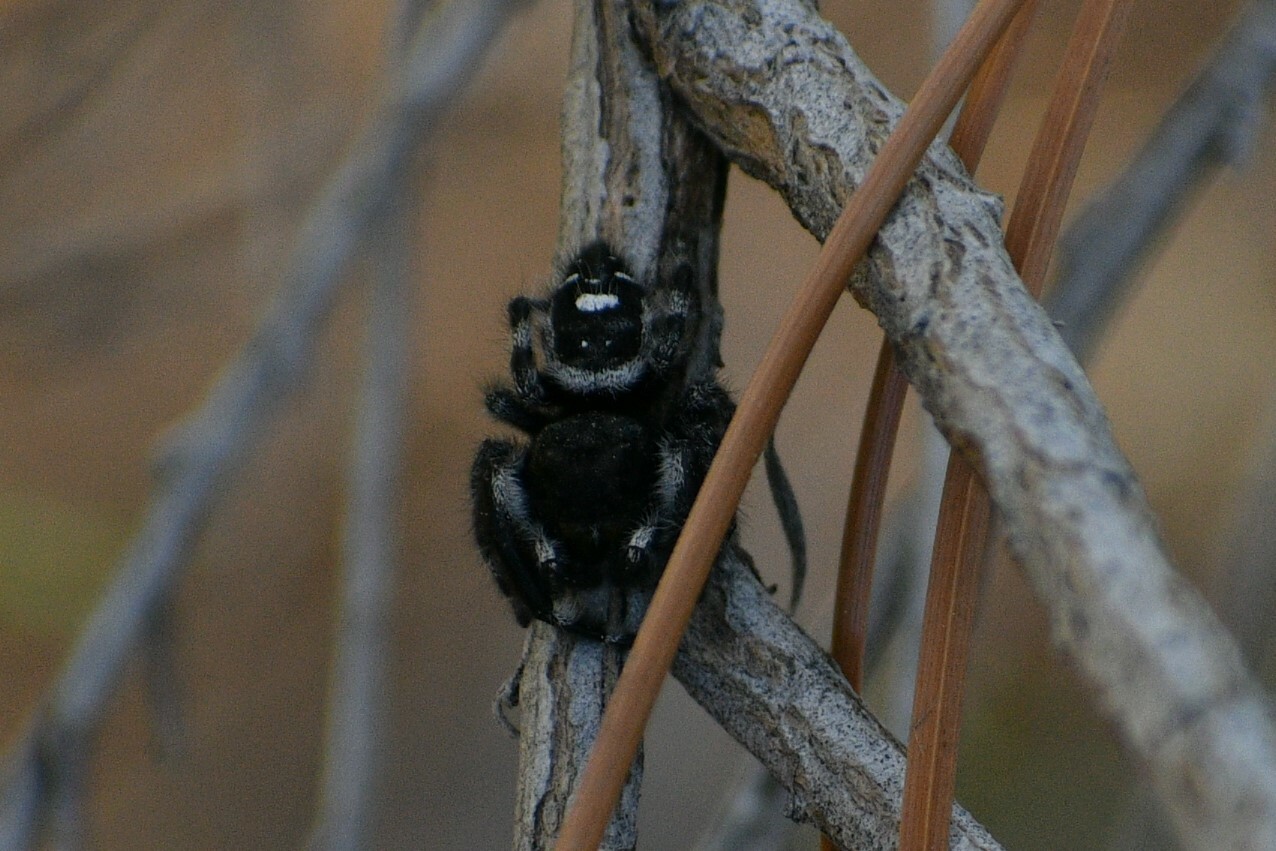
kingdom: Animalia
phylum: Arthropoda
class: Arachnida
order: Araneae
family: Salticidae
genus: Phidippus
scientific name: Phidippus audax
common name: Bold jumper
